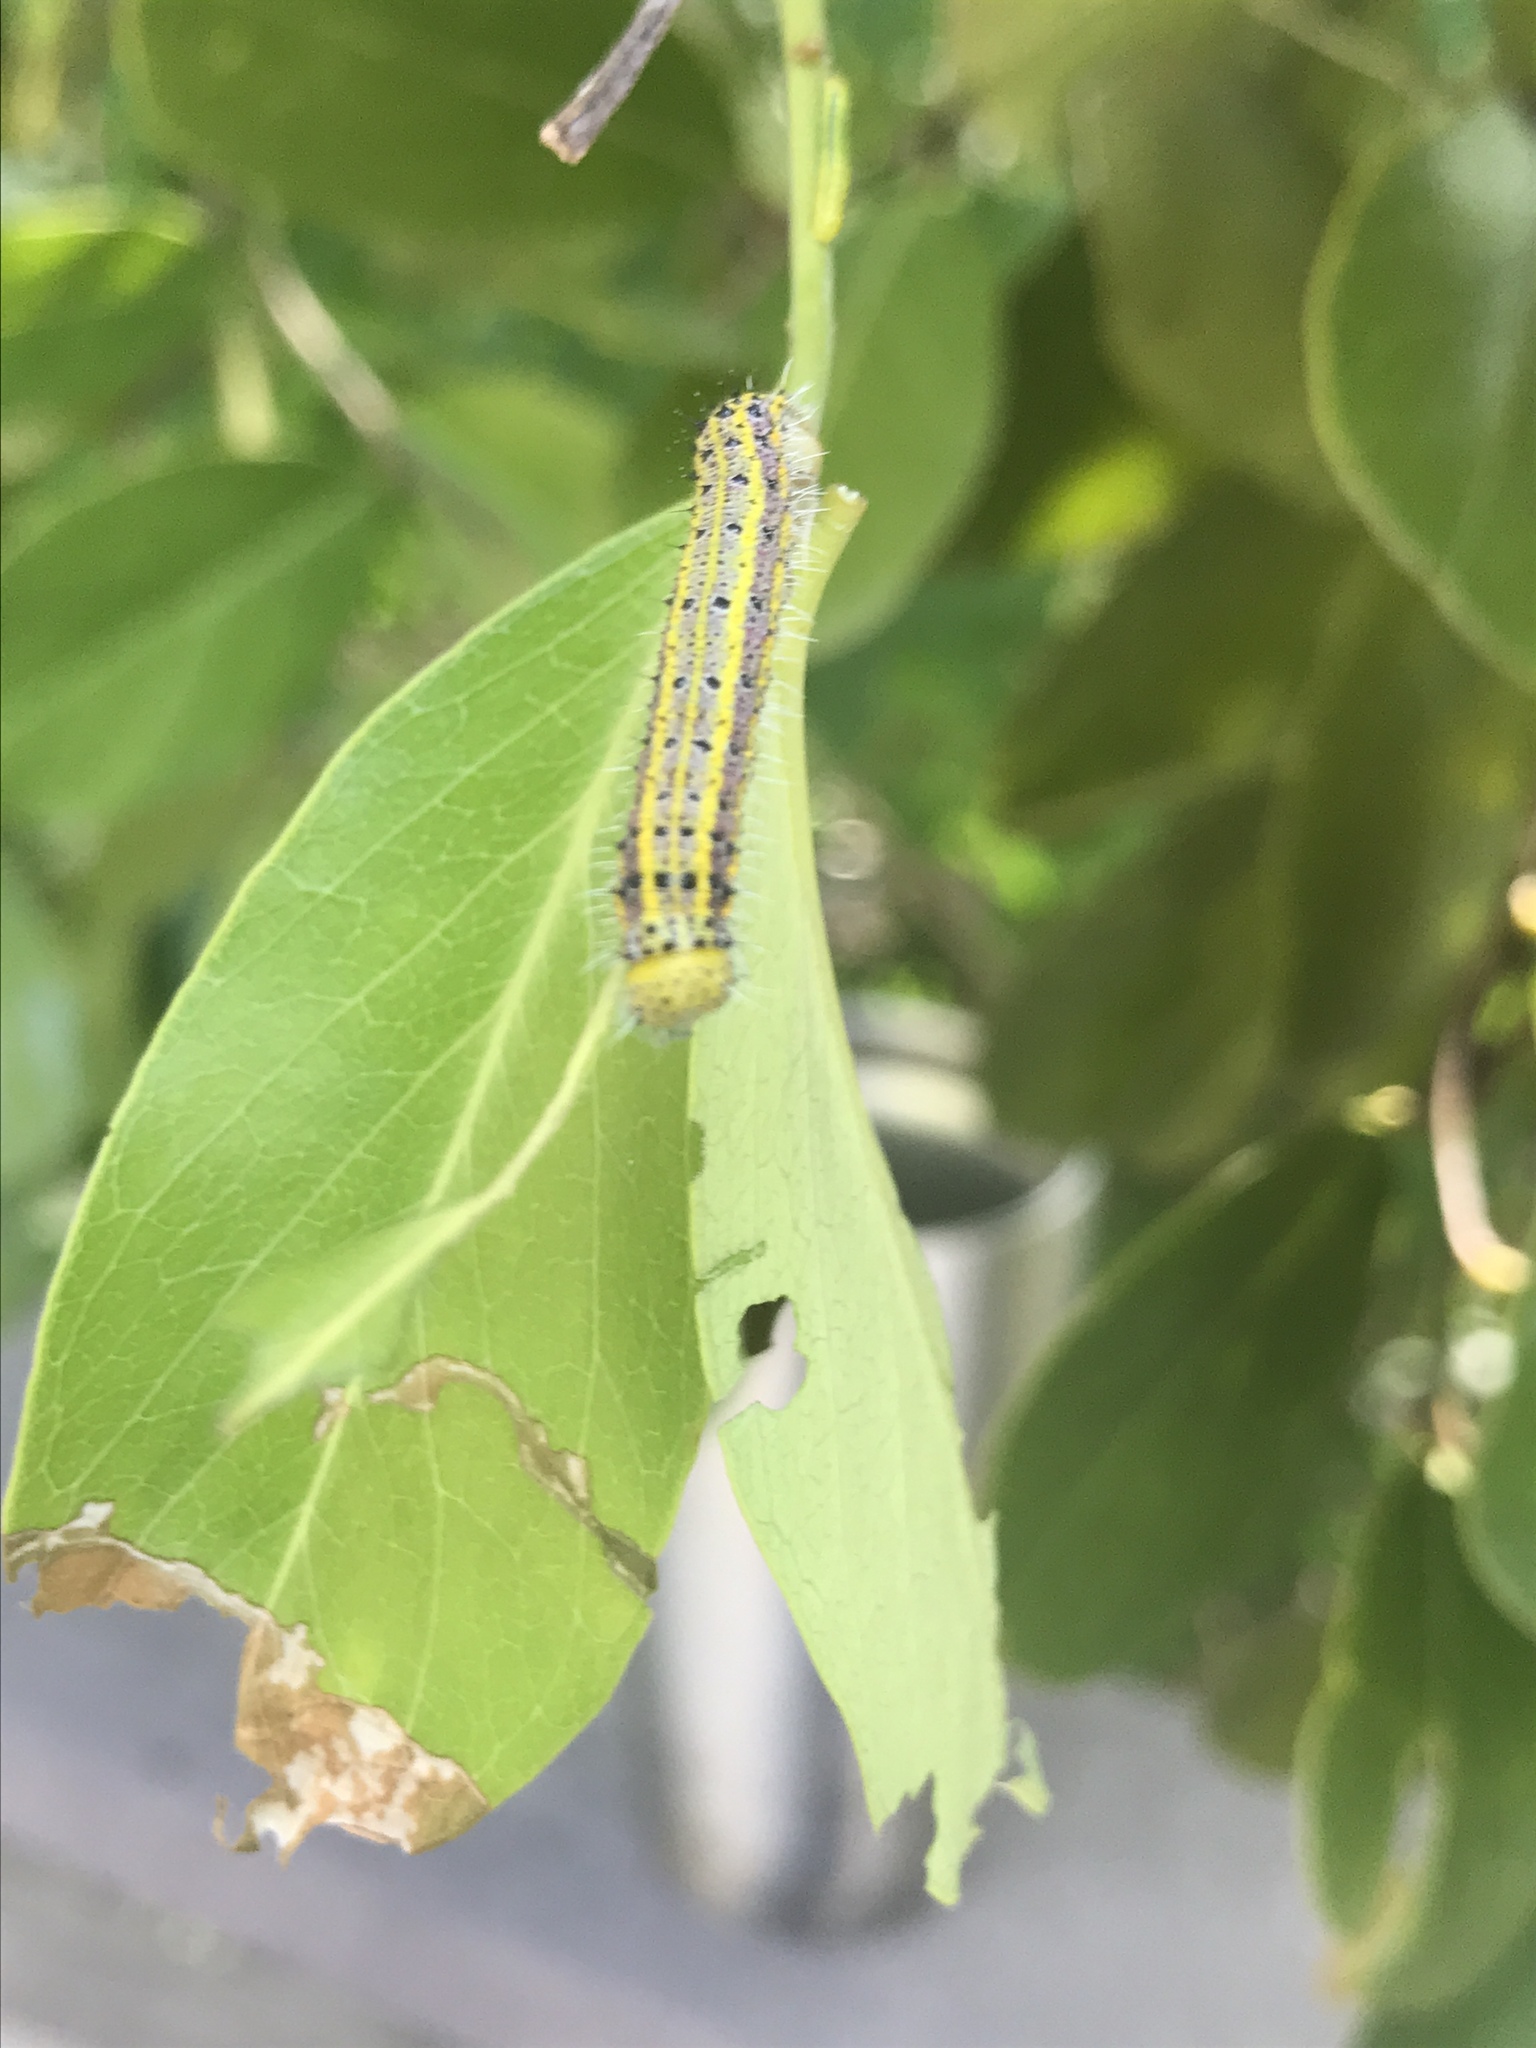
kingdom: Animalia
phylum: Arthropoda
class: Insecta
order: Lepidoptera
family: Pieridae
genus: Ascia
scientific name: Ascia monuste
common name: Great southern white
